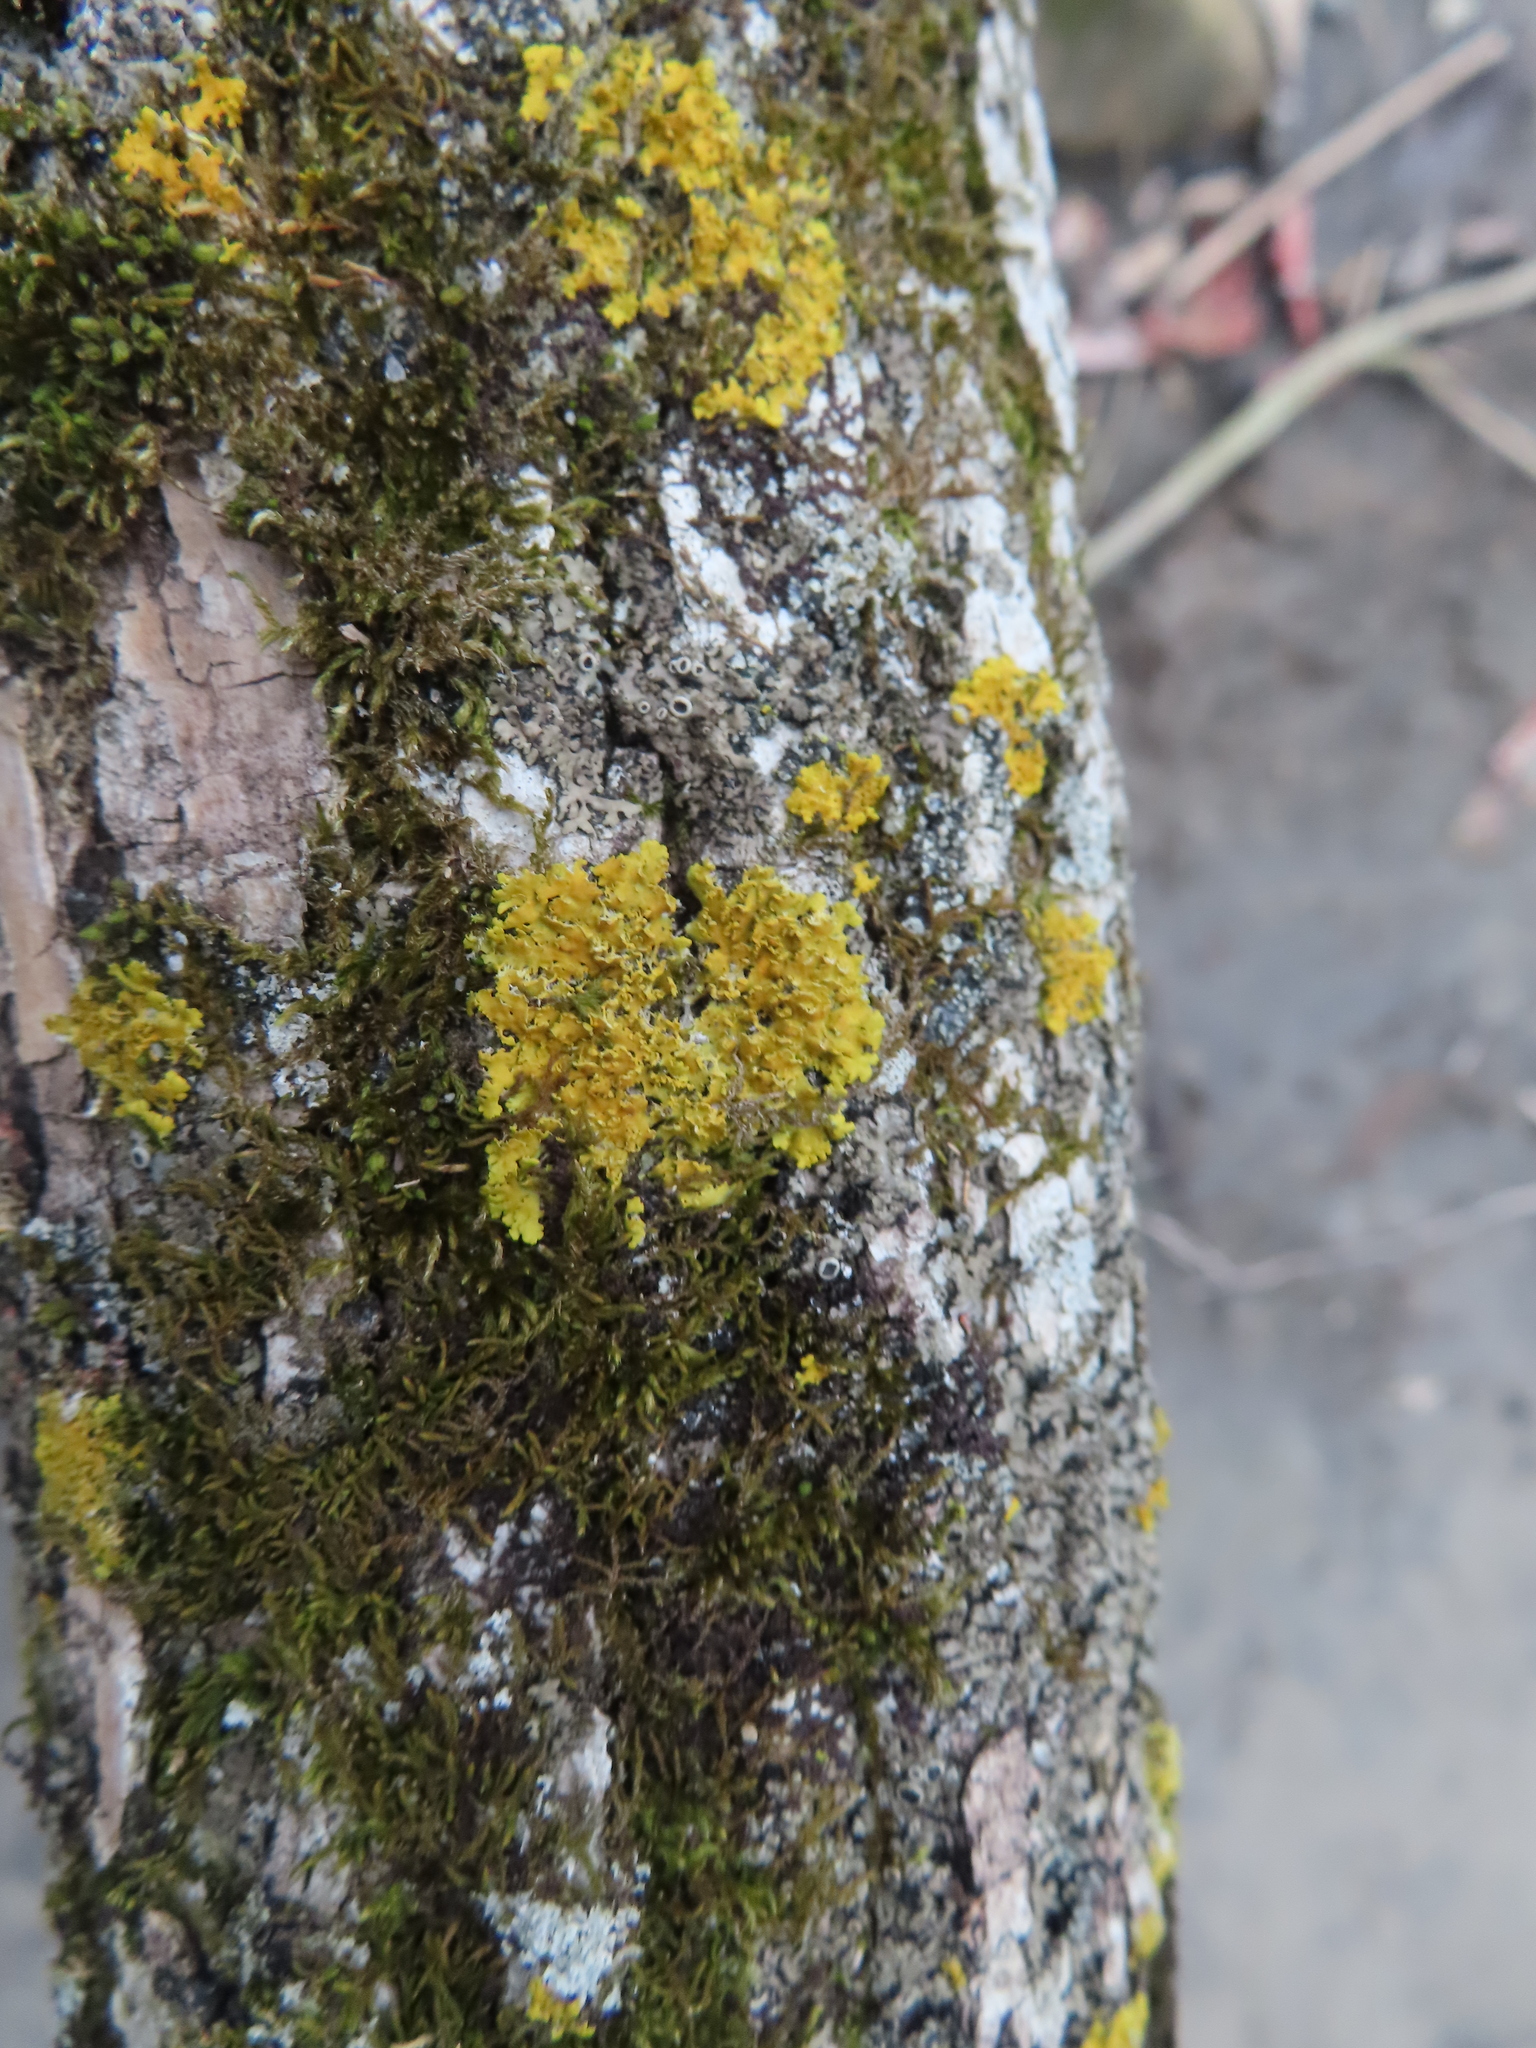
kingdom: Fungi
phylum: Ascomycota
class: Lecanoromycetes
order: Teloschistales
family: Teloschistaceae
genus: Xanthoria
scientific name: Xanthoria ulophyllodes
